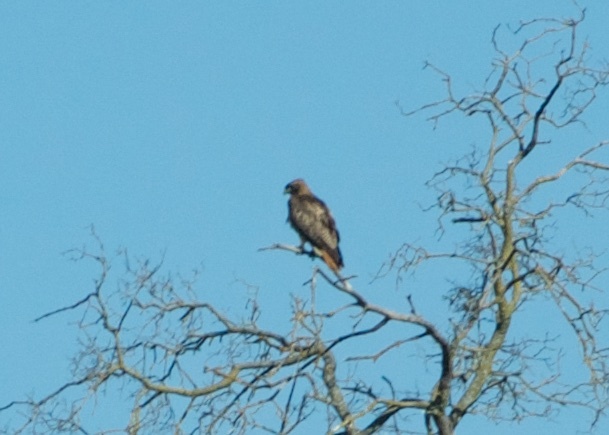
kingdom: Animalia
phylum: Chordata
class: Aves
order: Accipitriformes
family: Accipitridae
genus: Buteo
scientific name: Buteo jamaicensis
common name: Red-tailed hawk
